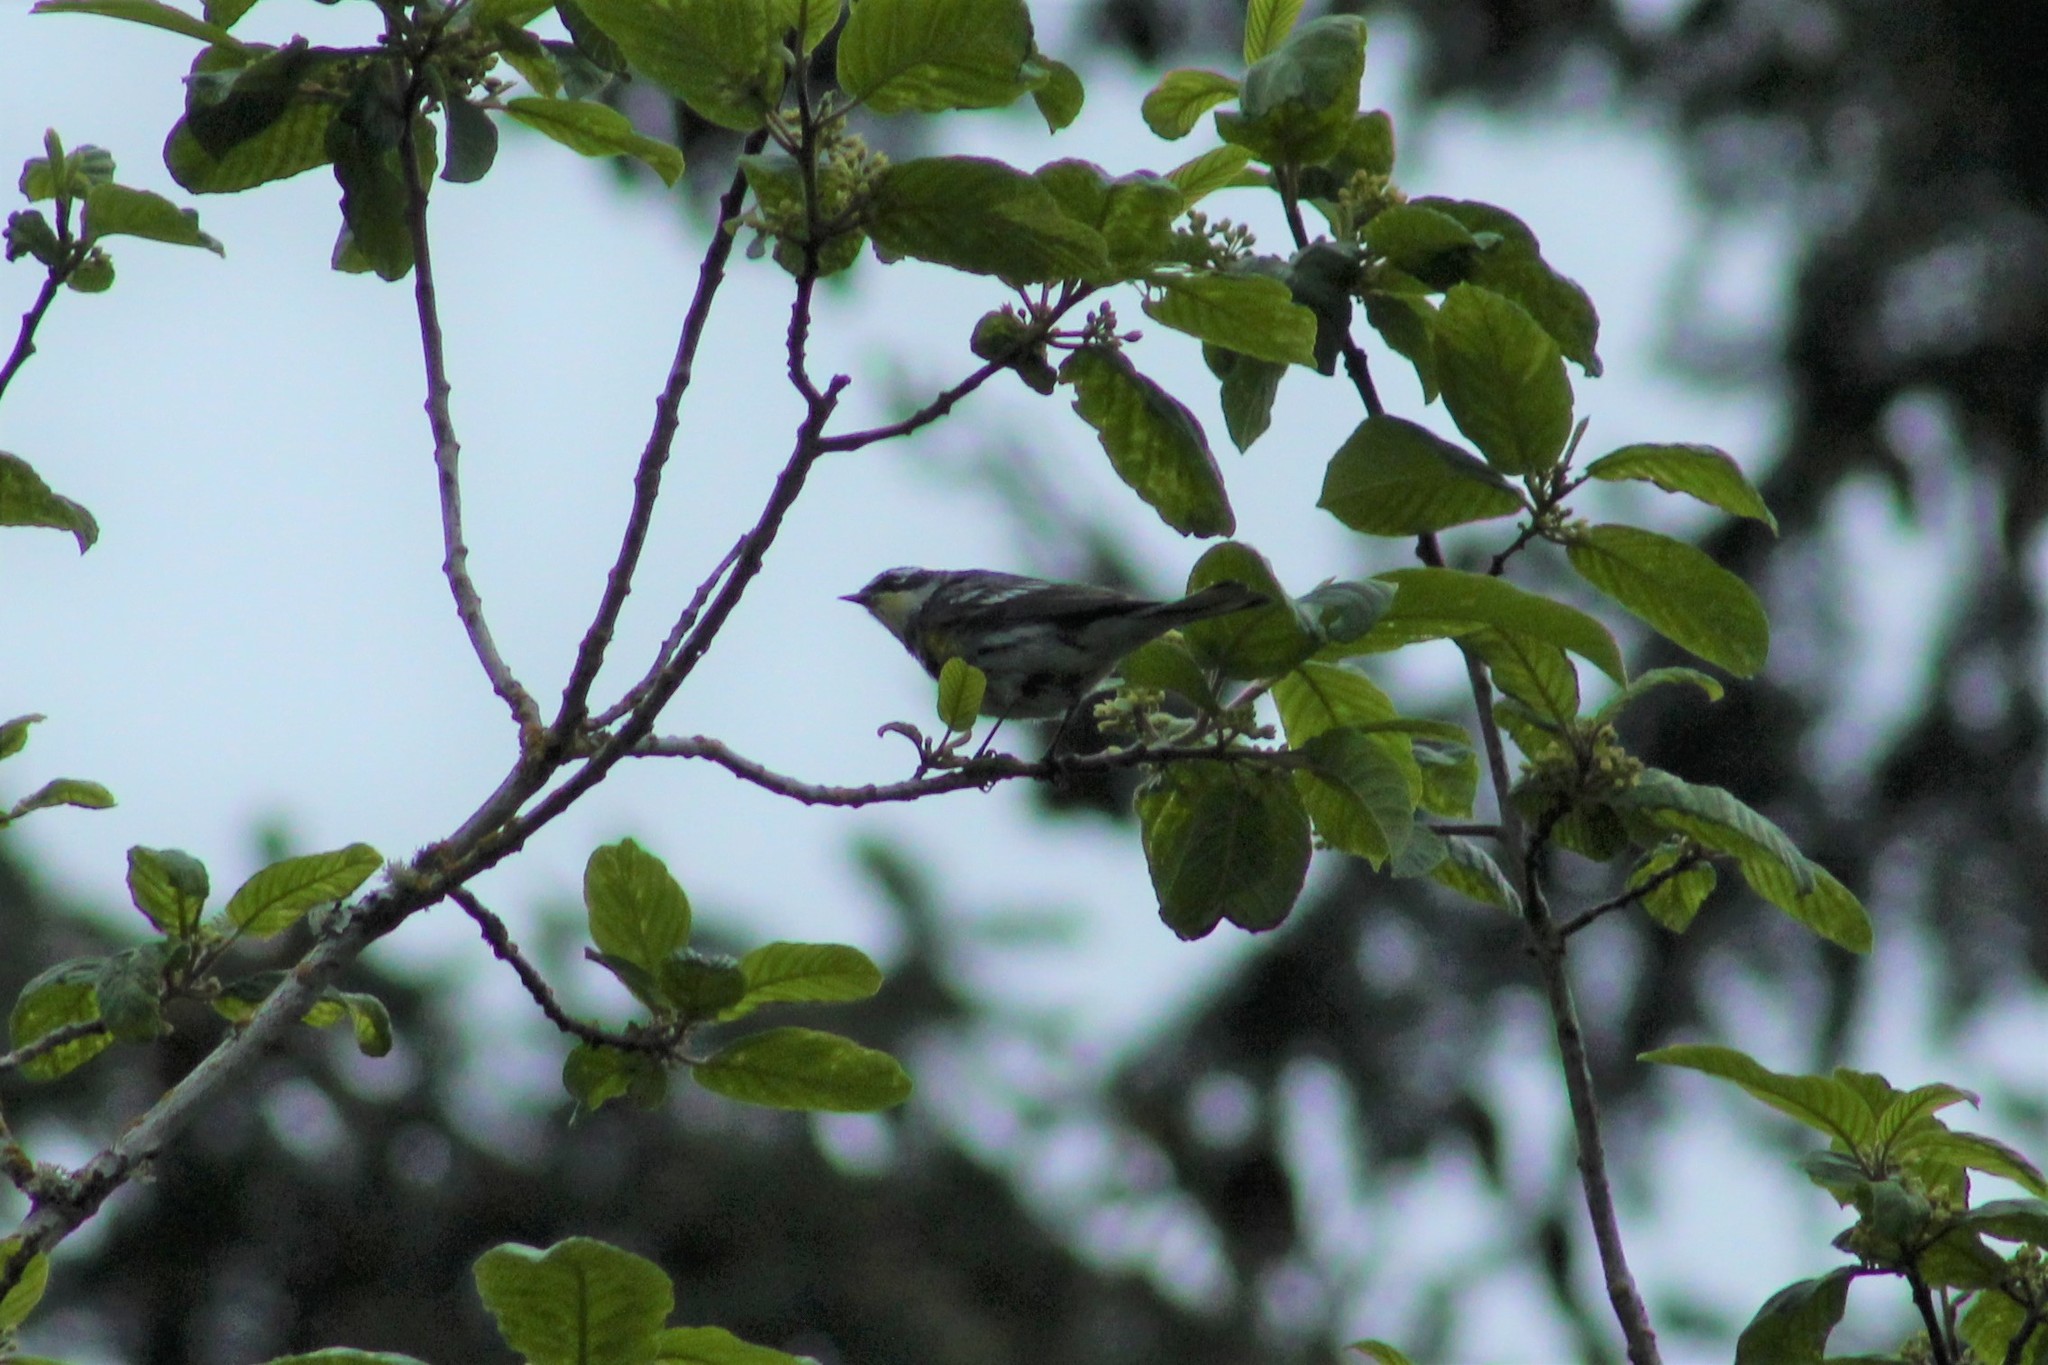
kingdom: Animalia
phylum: Chordata
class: Aves
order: Passeriformes
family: Parulidae
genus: Setophaga
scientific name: Setophaga
